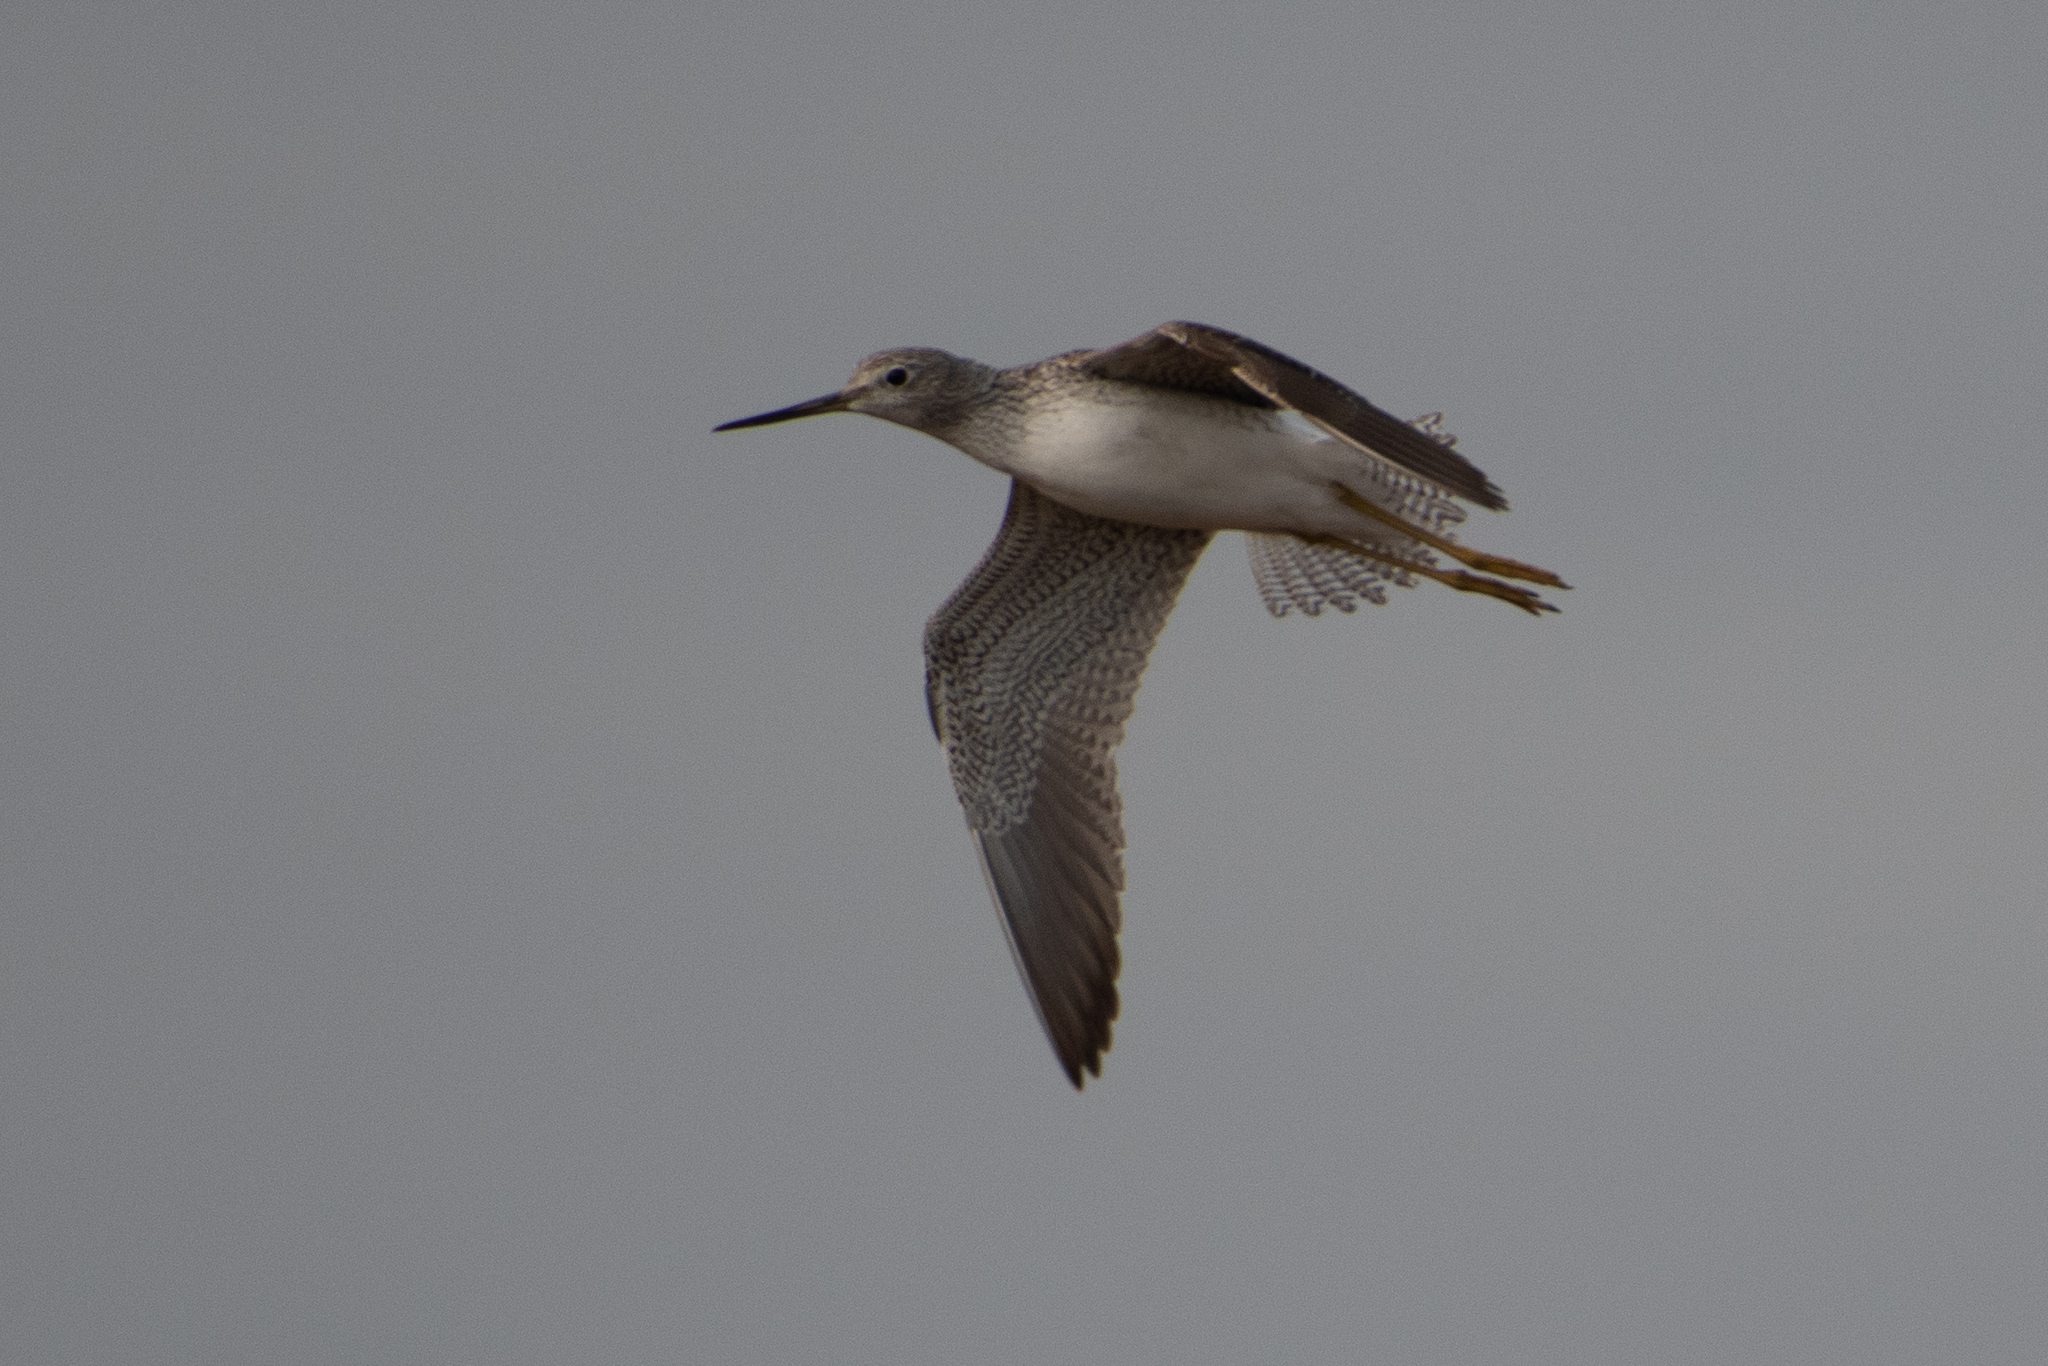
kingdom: Animalia
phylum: Chordata
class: Aves
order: Charadriiformes
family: Scolopacidae
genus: Tringa
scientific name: Tringa melanoleuca
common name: Greater yellowlegs
